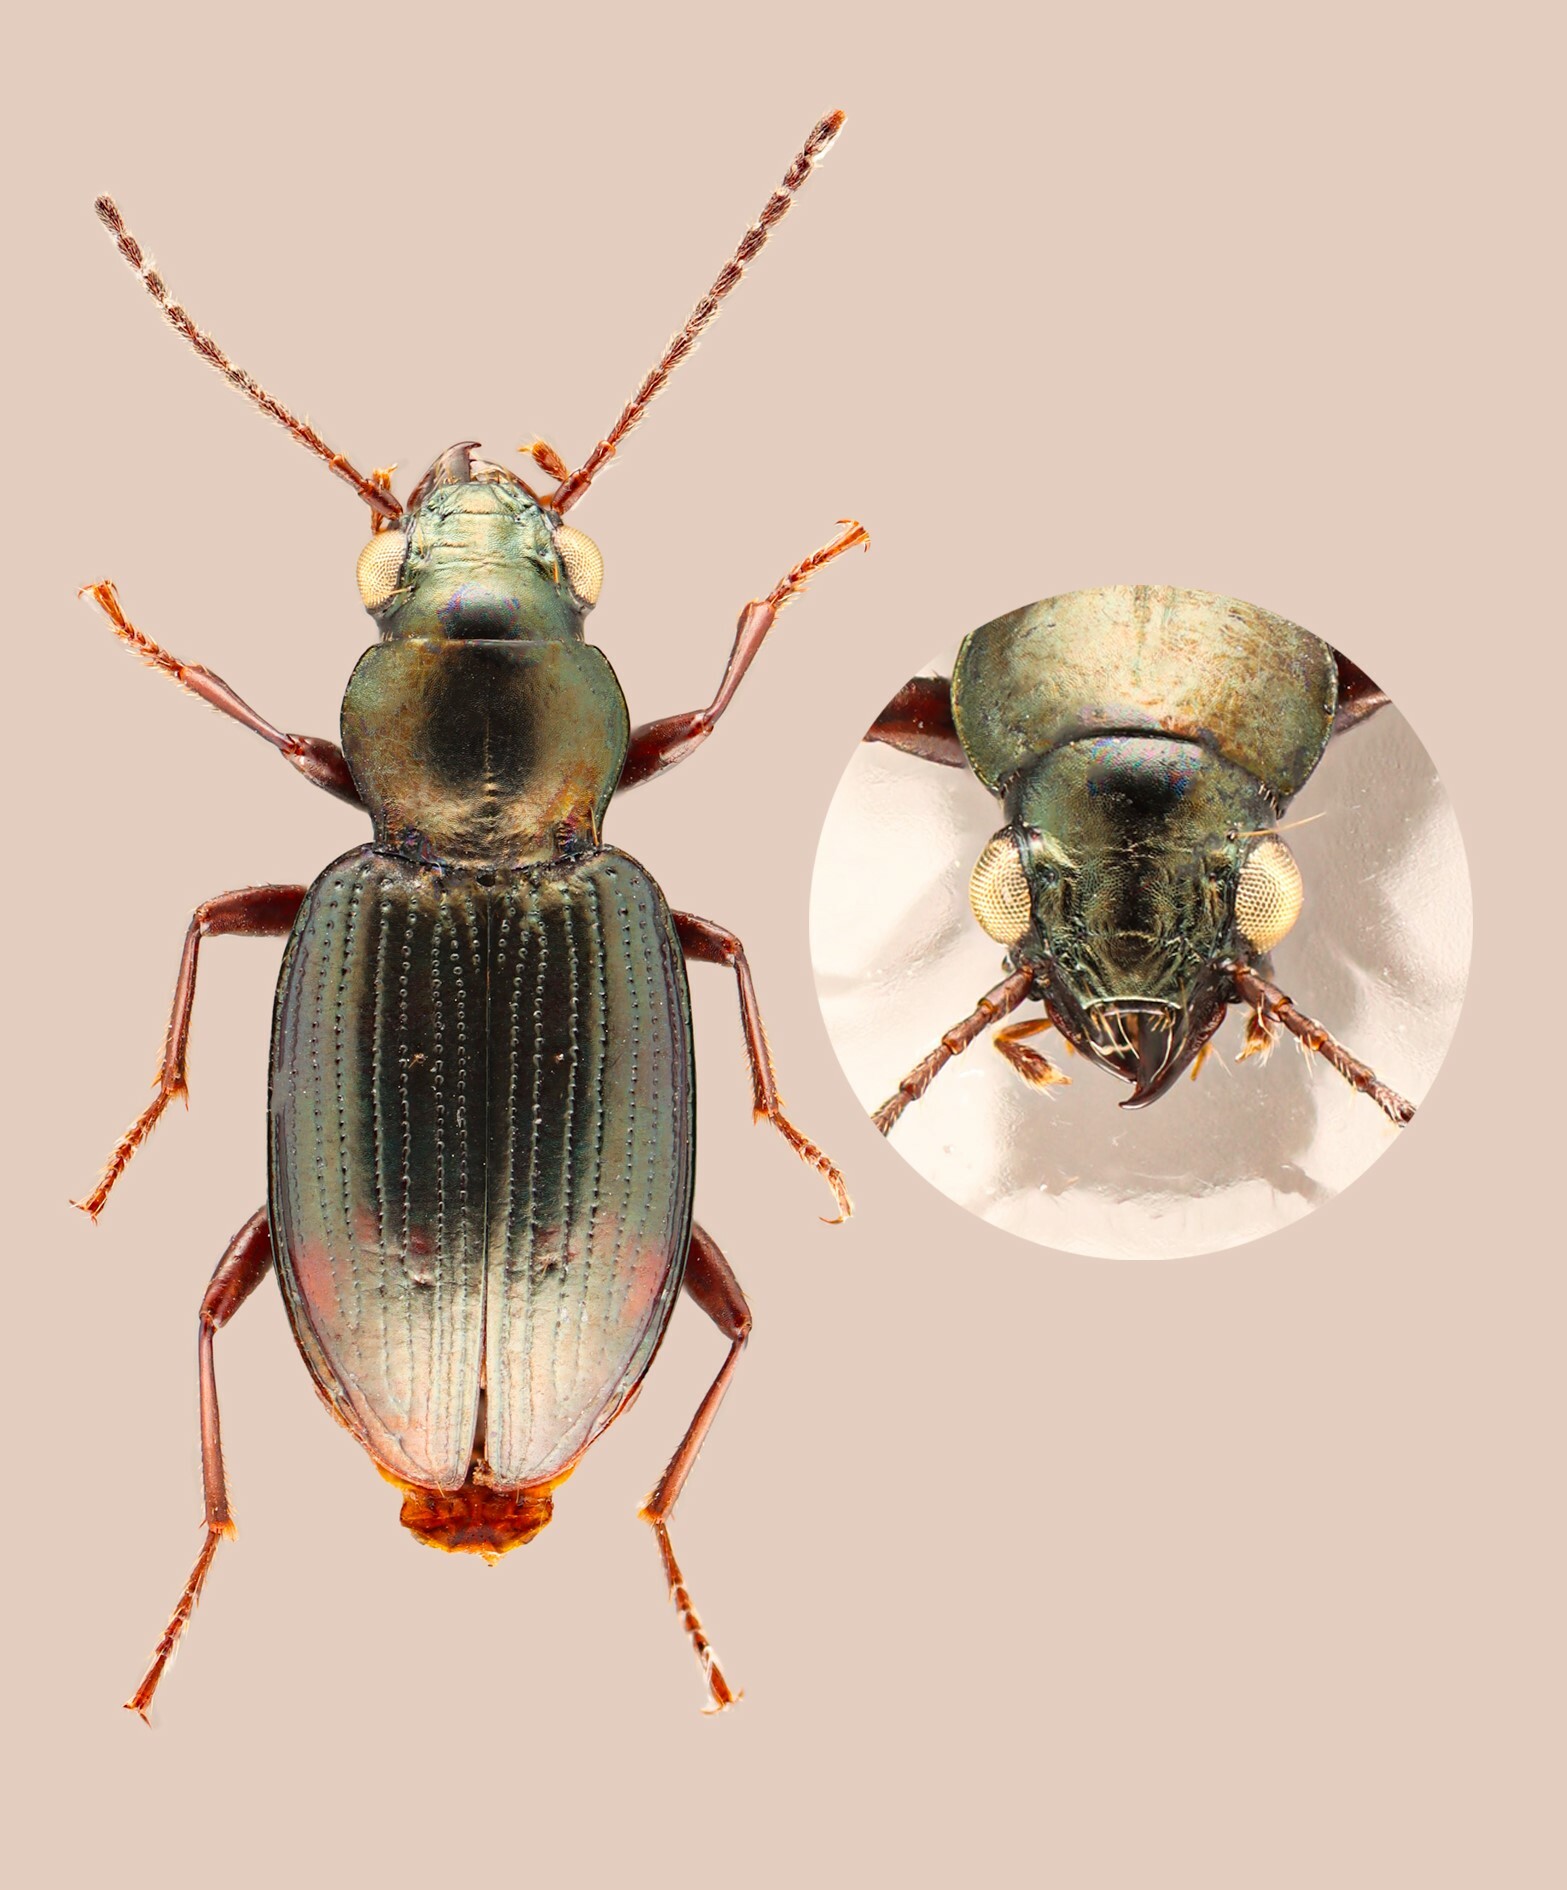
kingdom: Animalia
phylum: Arthropoda
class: Insecta
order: Coleoptera
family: Carabidae
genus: Bembidion
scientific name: Bembidion oberthueri
